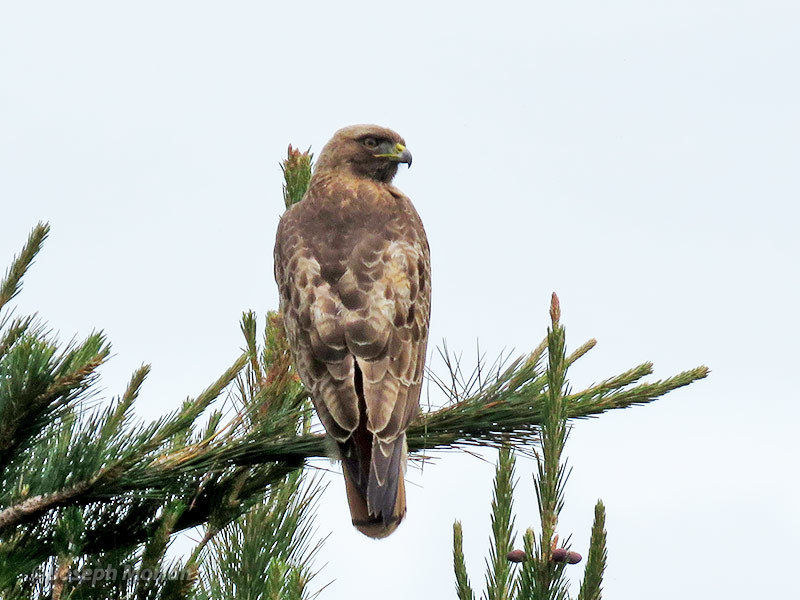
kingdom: Animalia
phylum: Chordata
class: Aves
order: Accipitriformes
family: Accipitridae
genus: Buteo
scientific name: Buteo jamaicensis
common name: Red-tailed hawk
